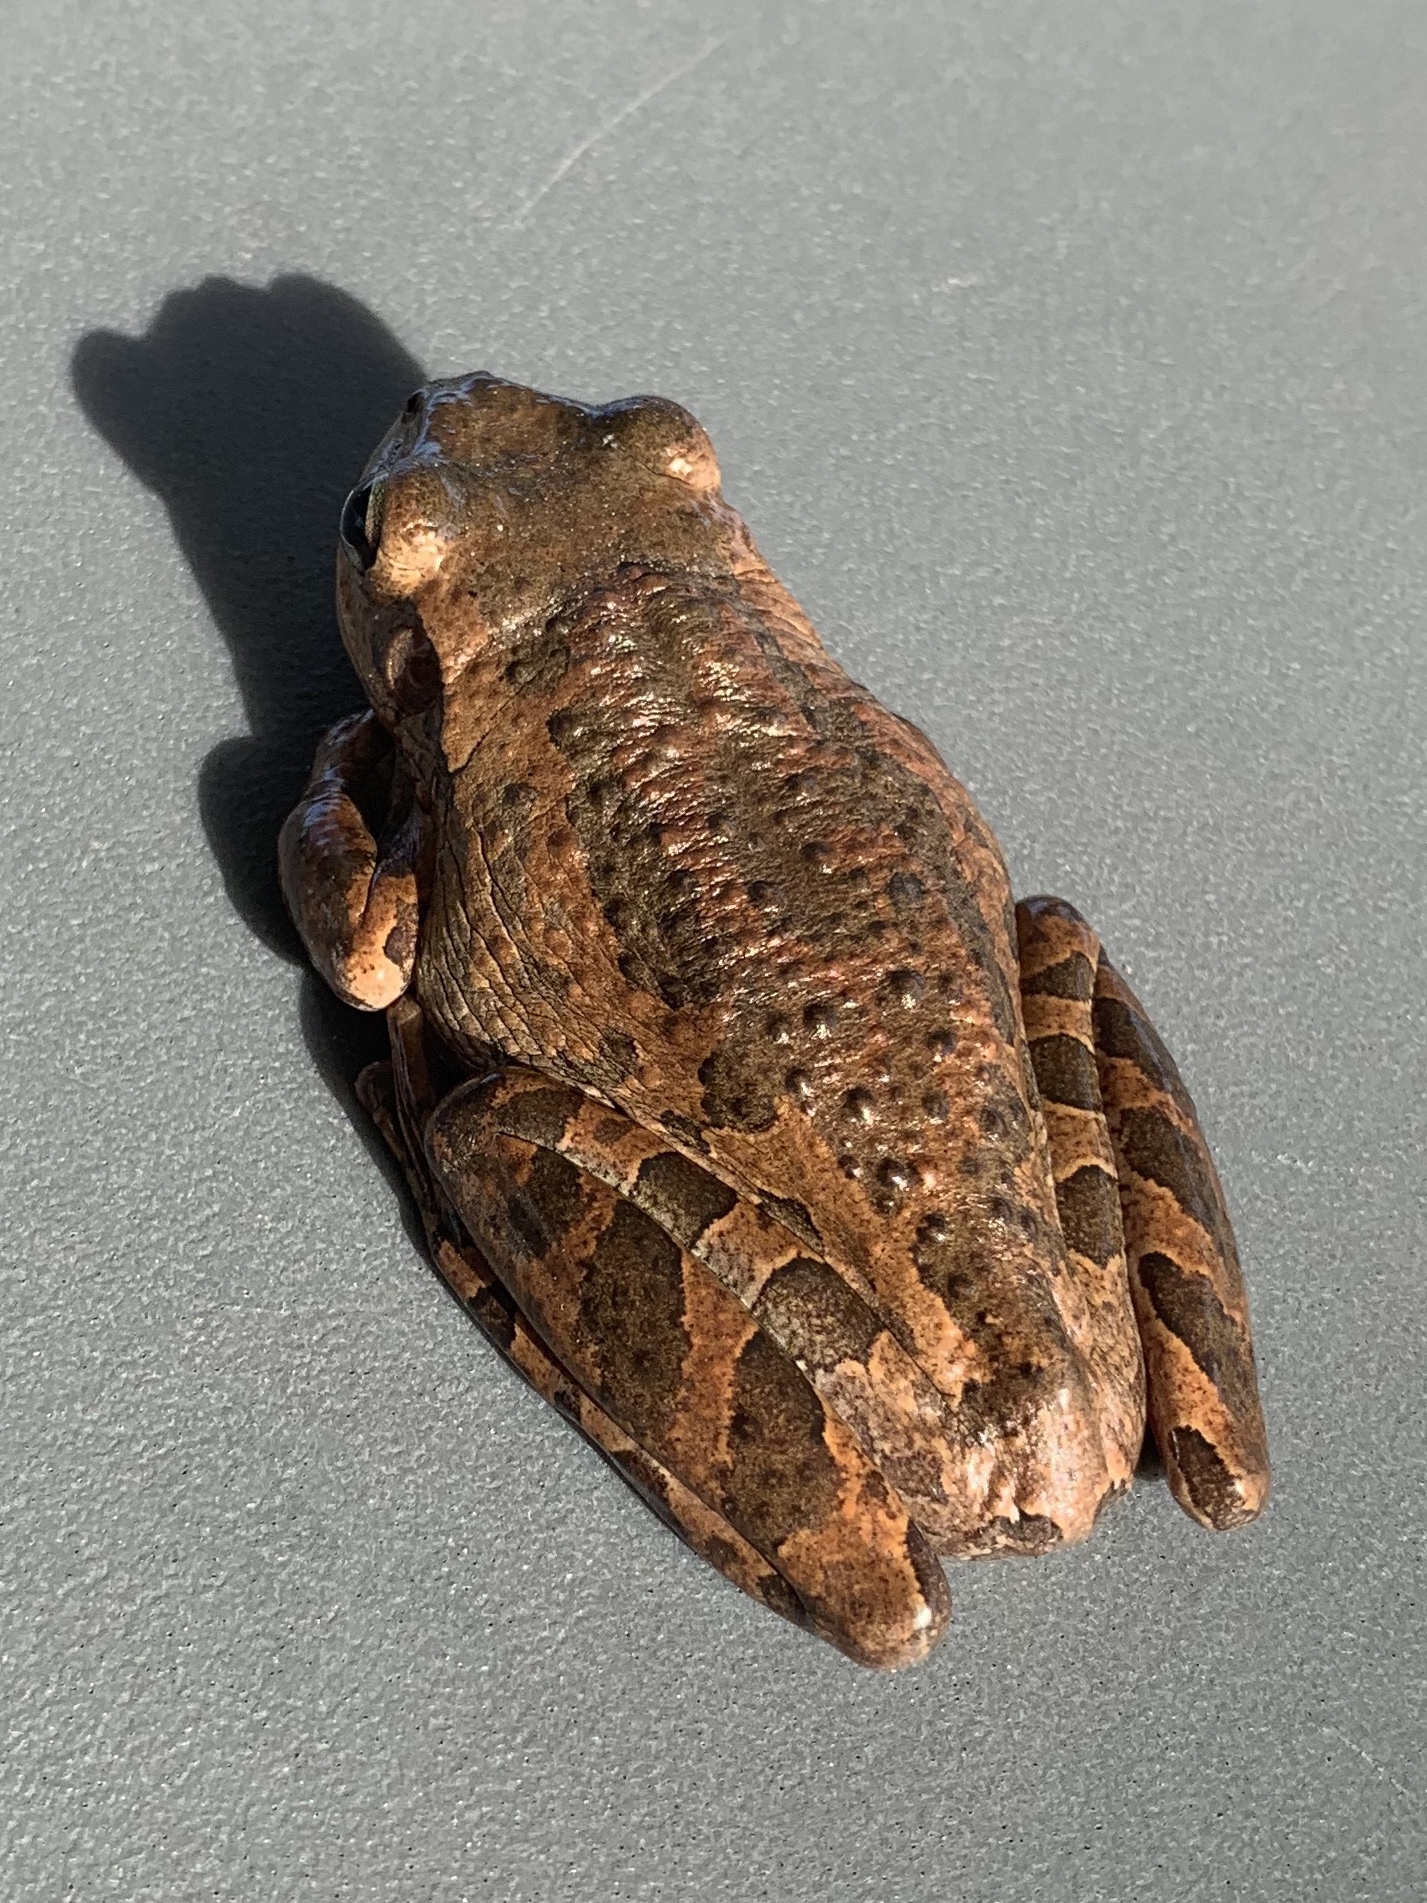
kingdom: Animalia
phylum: Chordata
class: Amphibia
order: Anura
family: Hylidae
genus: Osteopilus
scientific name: Osteopilus septentrionalis
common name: Cuban treefrog
